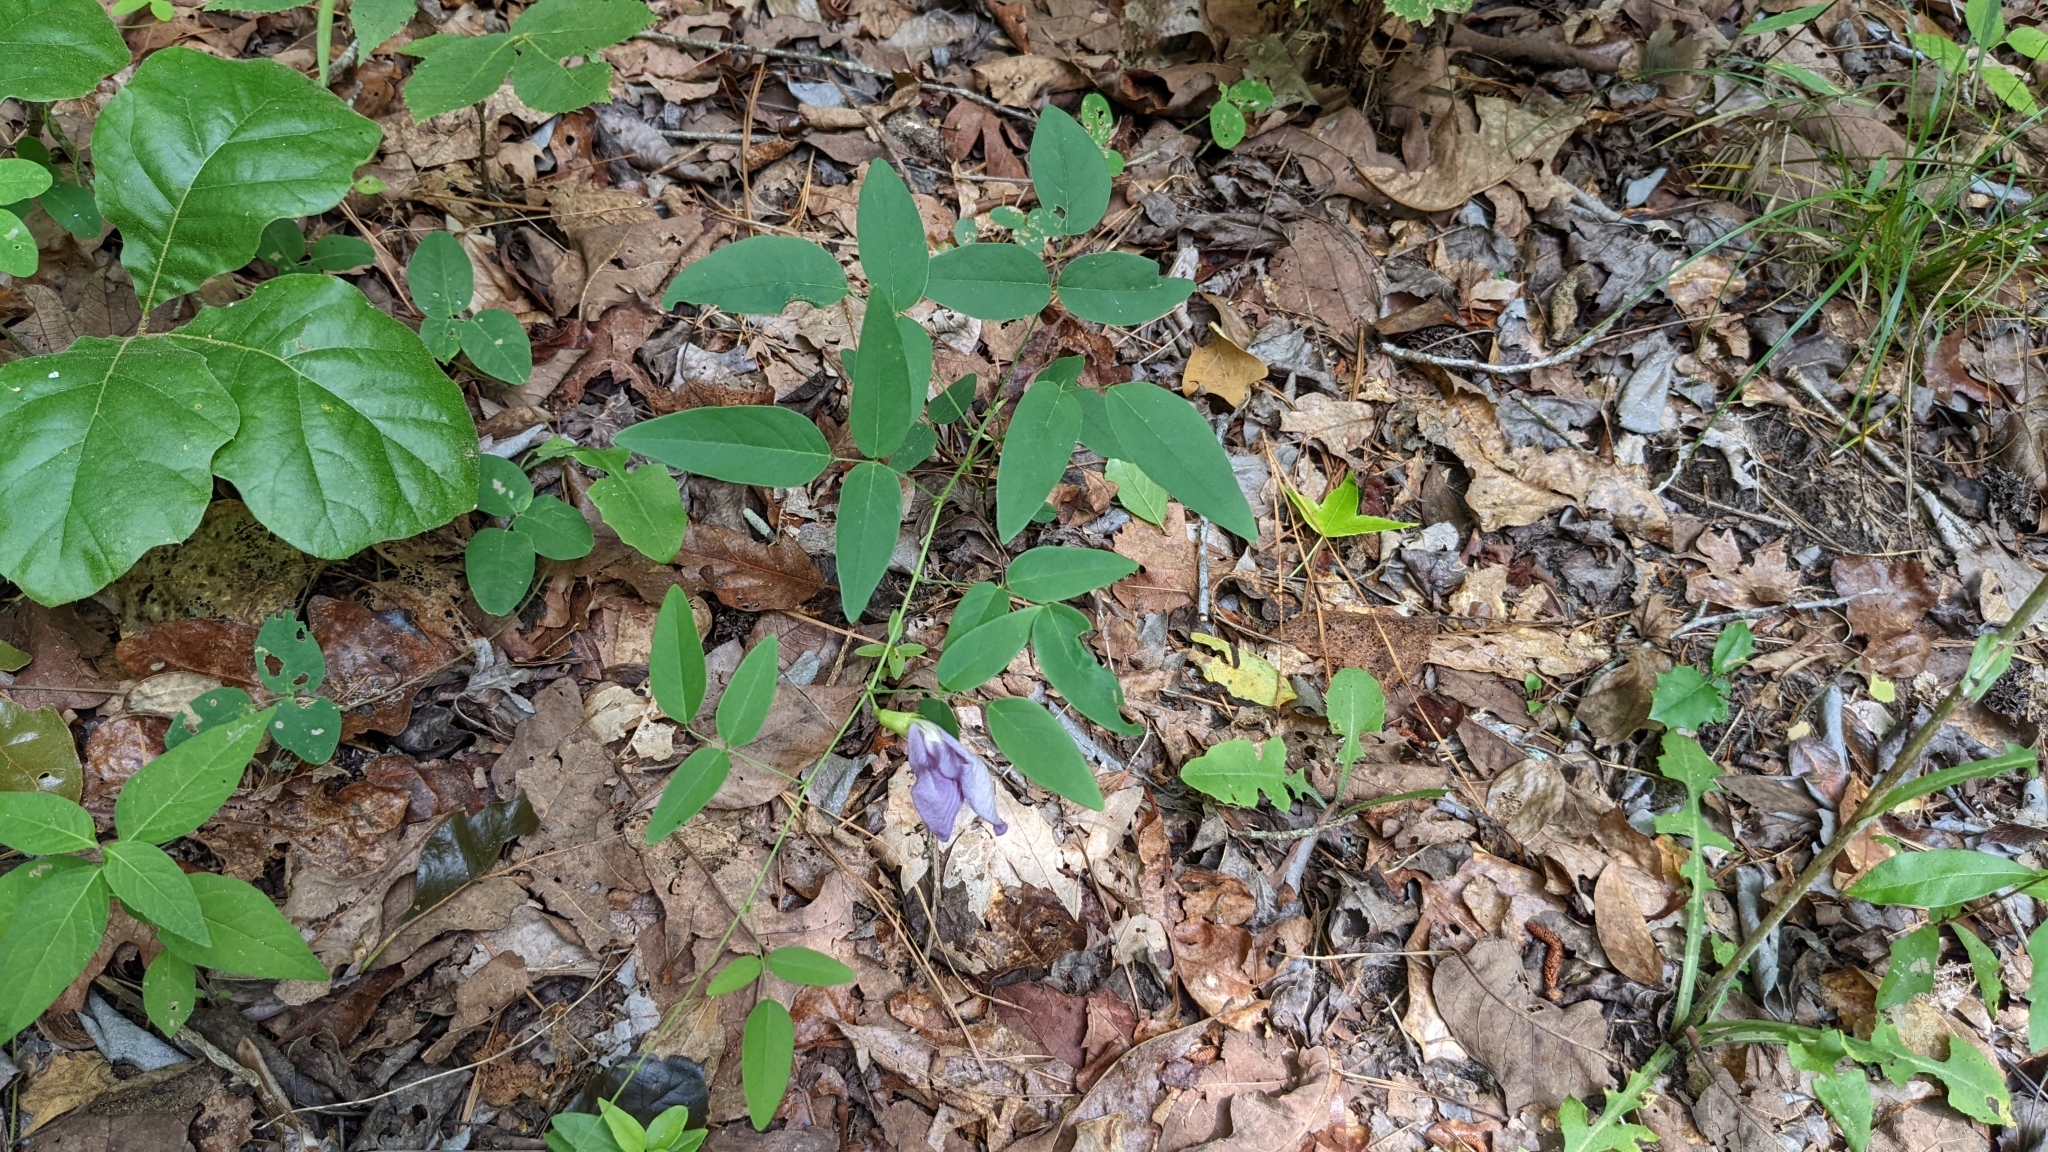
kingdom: Plantae
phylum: Tracheophyta
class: Magnoliopsida
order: Fabales
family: Fabaceae
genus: Clitoria
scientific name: Clitoria mariana
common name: Butterfly-pea
